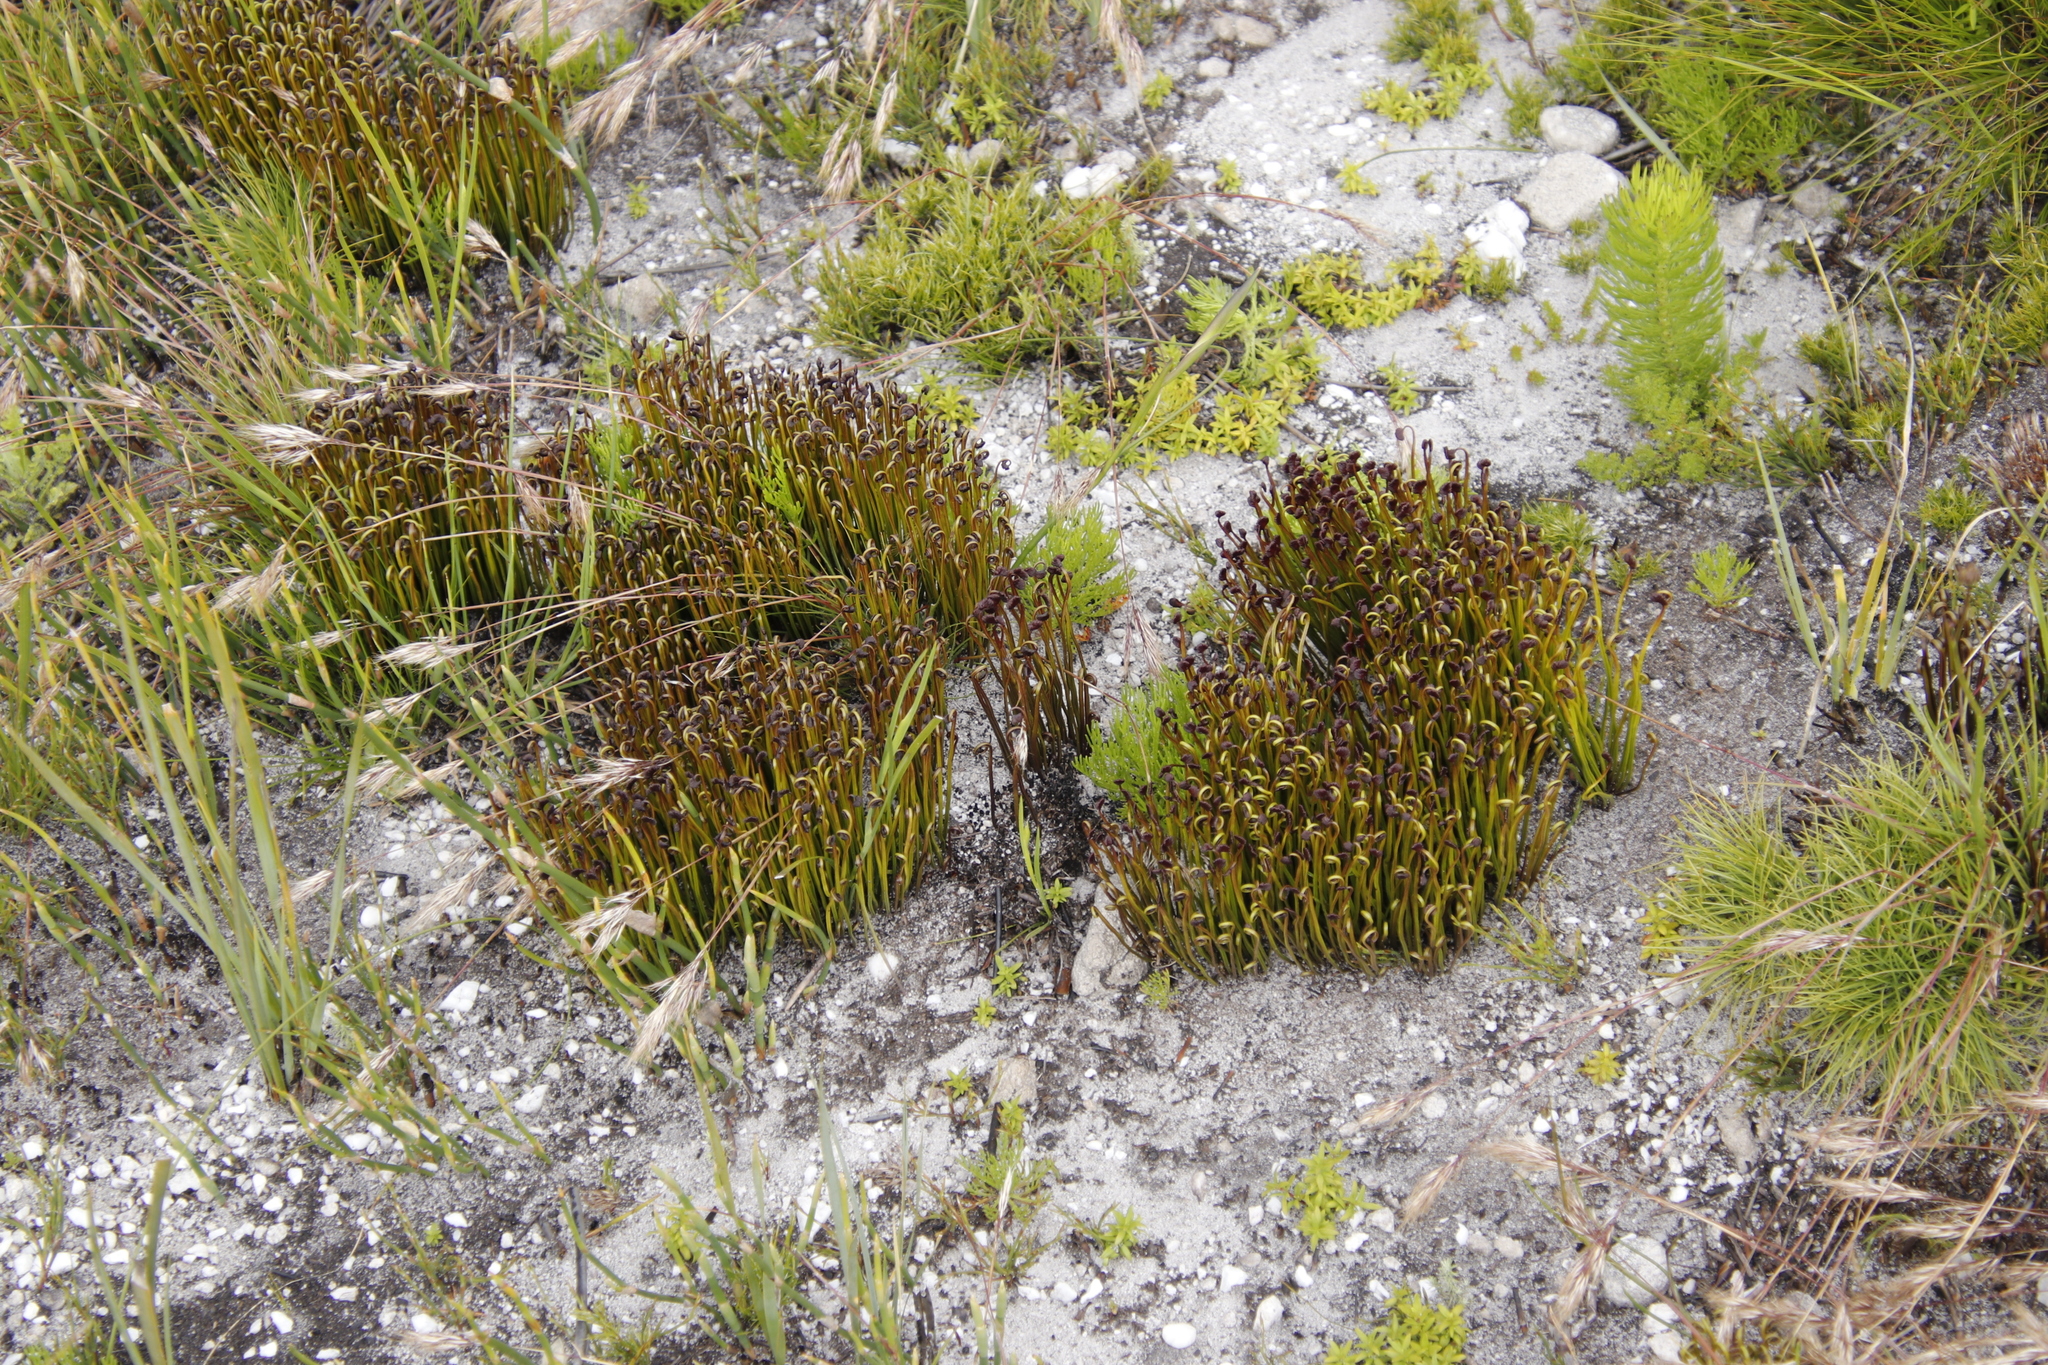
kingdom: Plantae
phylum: Tracheophyta
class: Polypodiopsida
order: Schizaeales
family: Schizaeaceae
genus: Schizaea
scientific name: Schizaea pectinata
